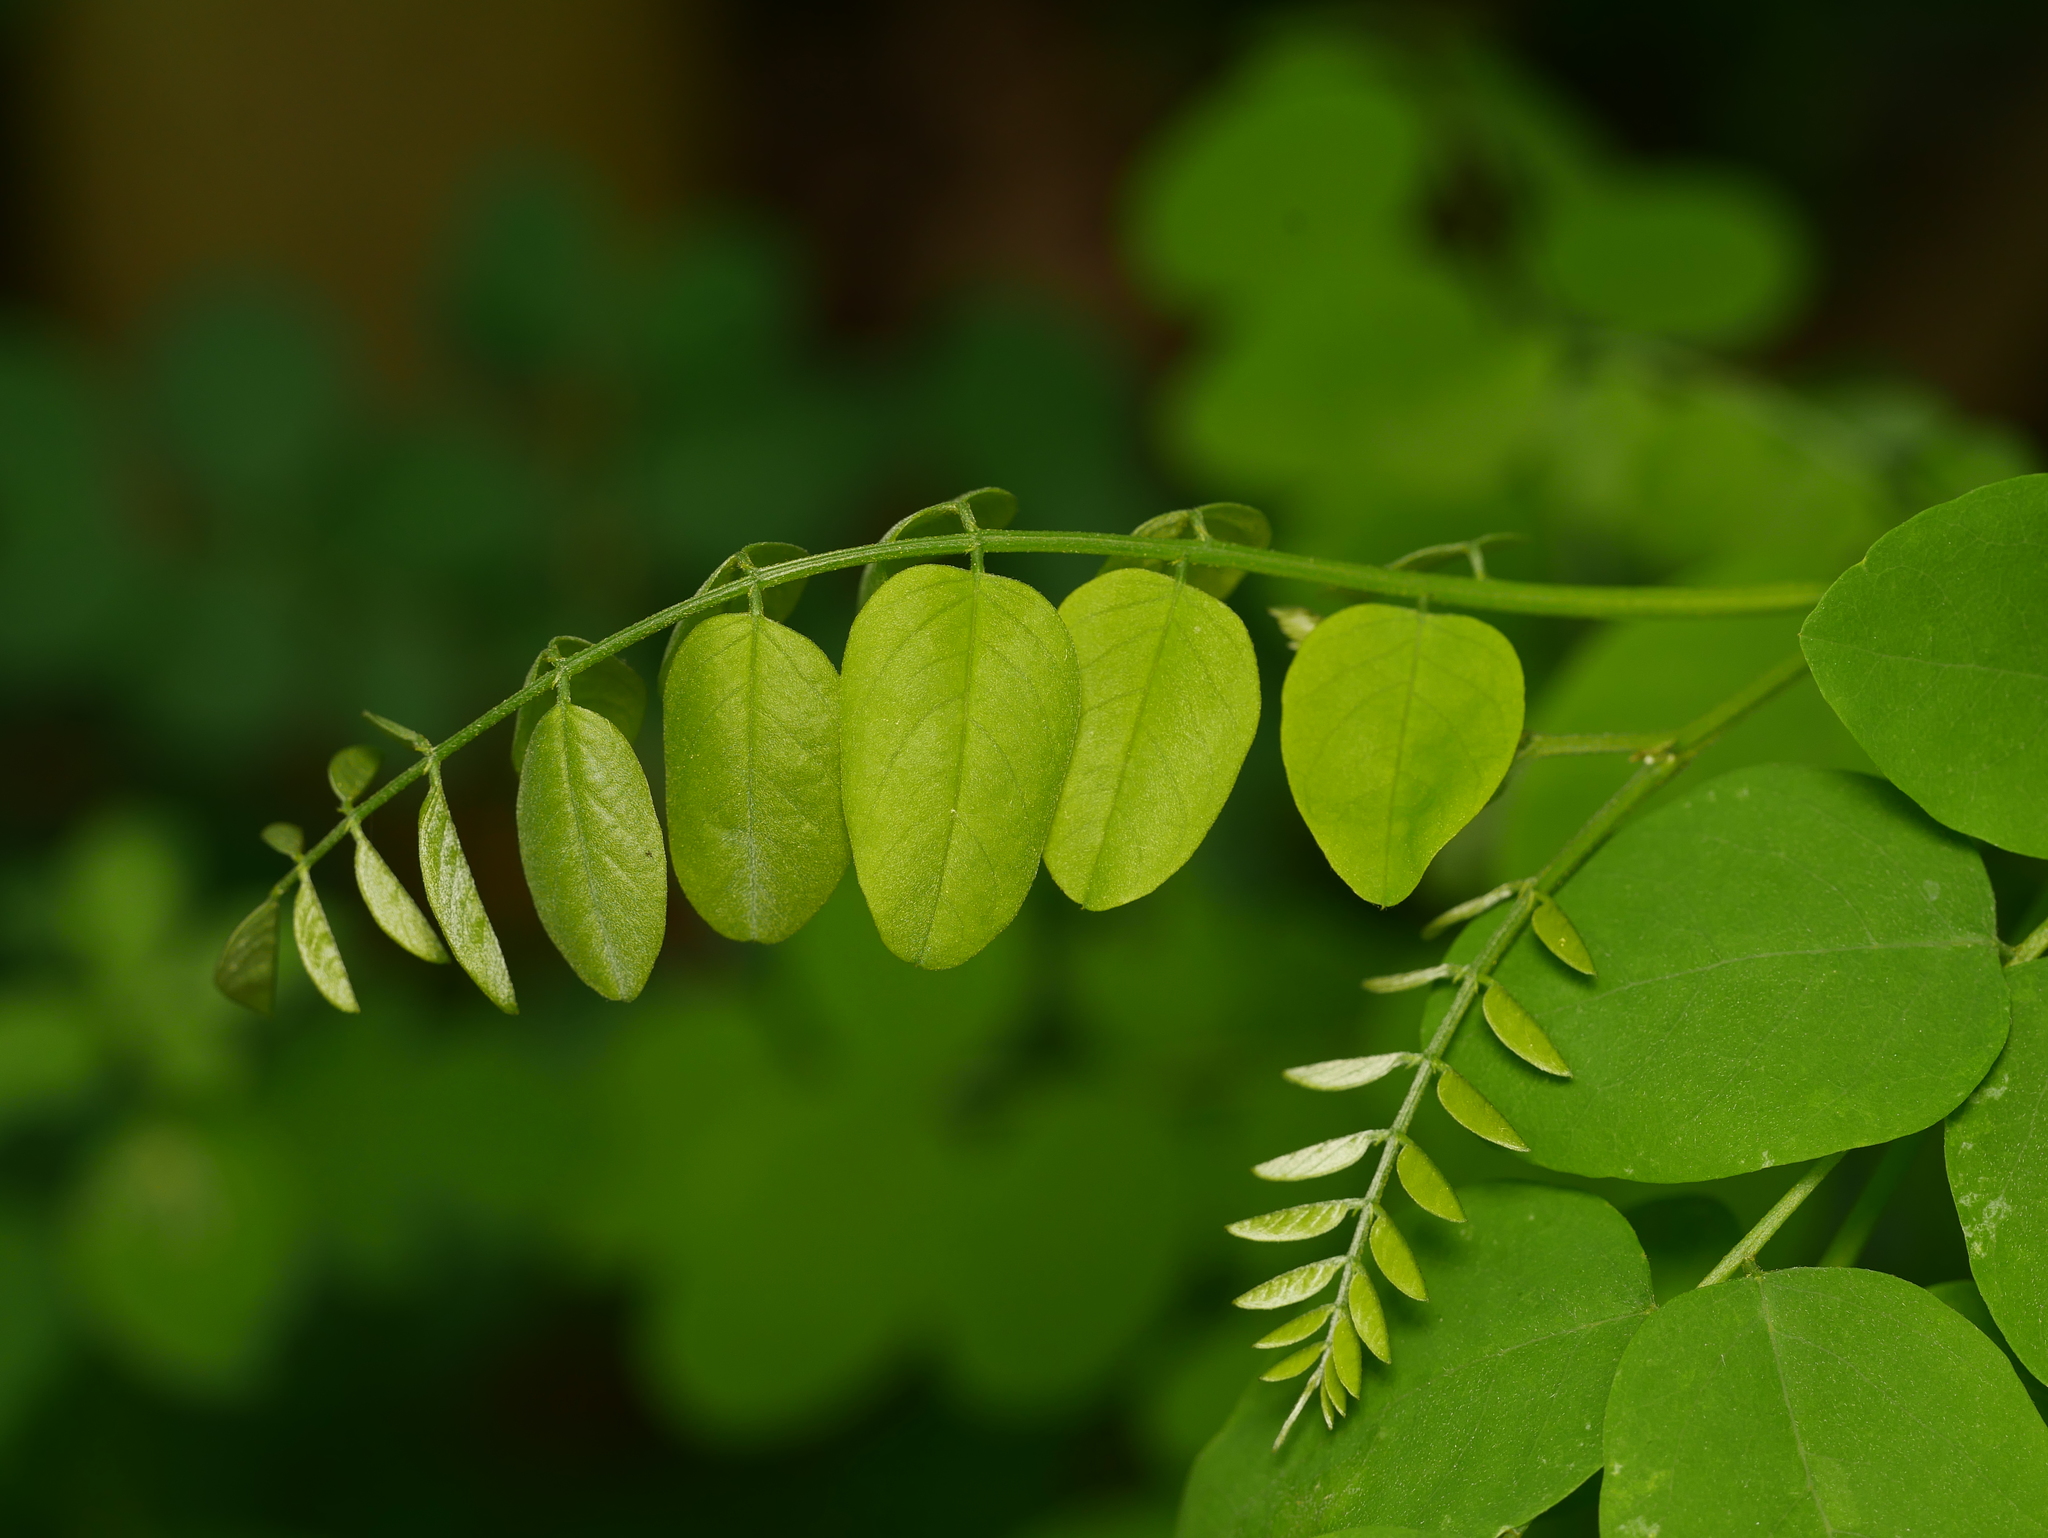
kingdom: Plantae
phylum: Tracheophyta
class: Magnoliopsida
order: Fabales
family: Fabaceae
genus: Robinia
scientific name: Robinia pseudoacacia
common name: Black locust
